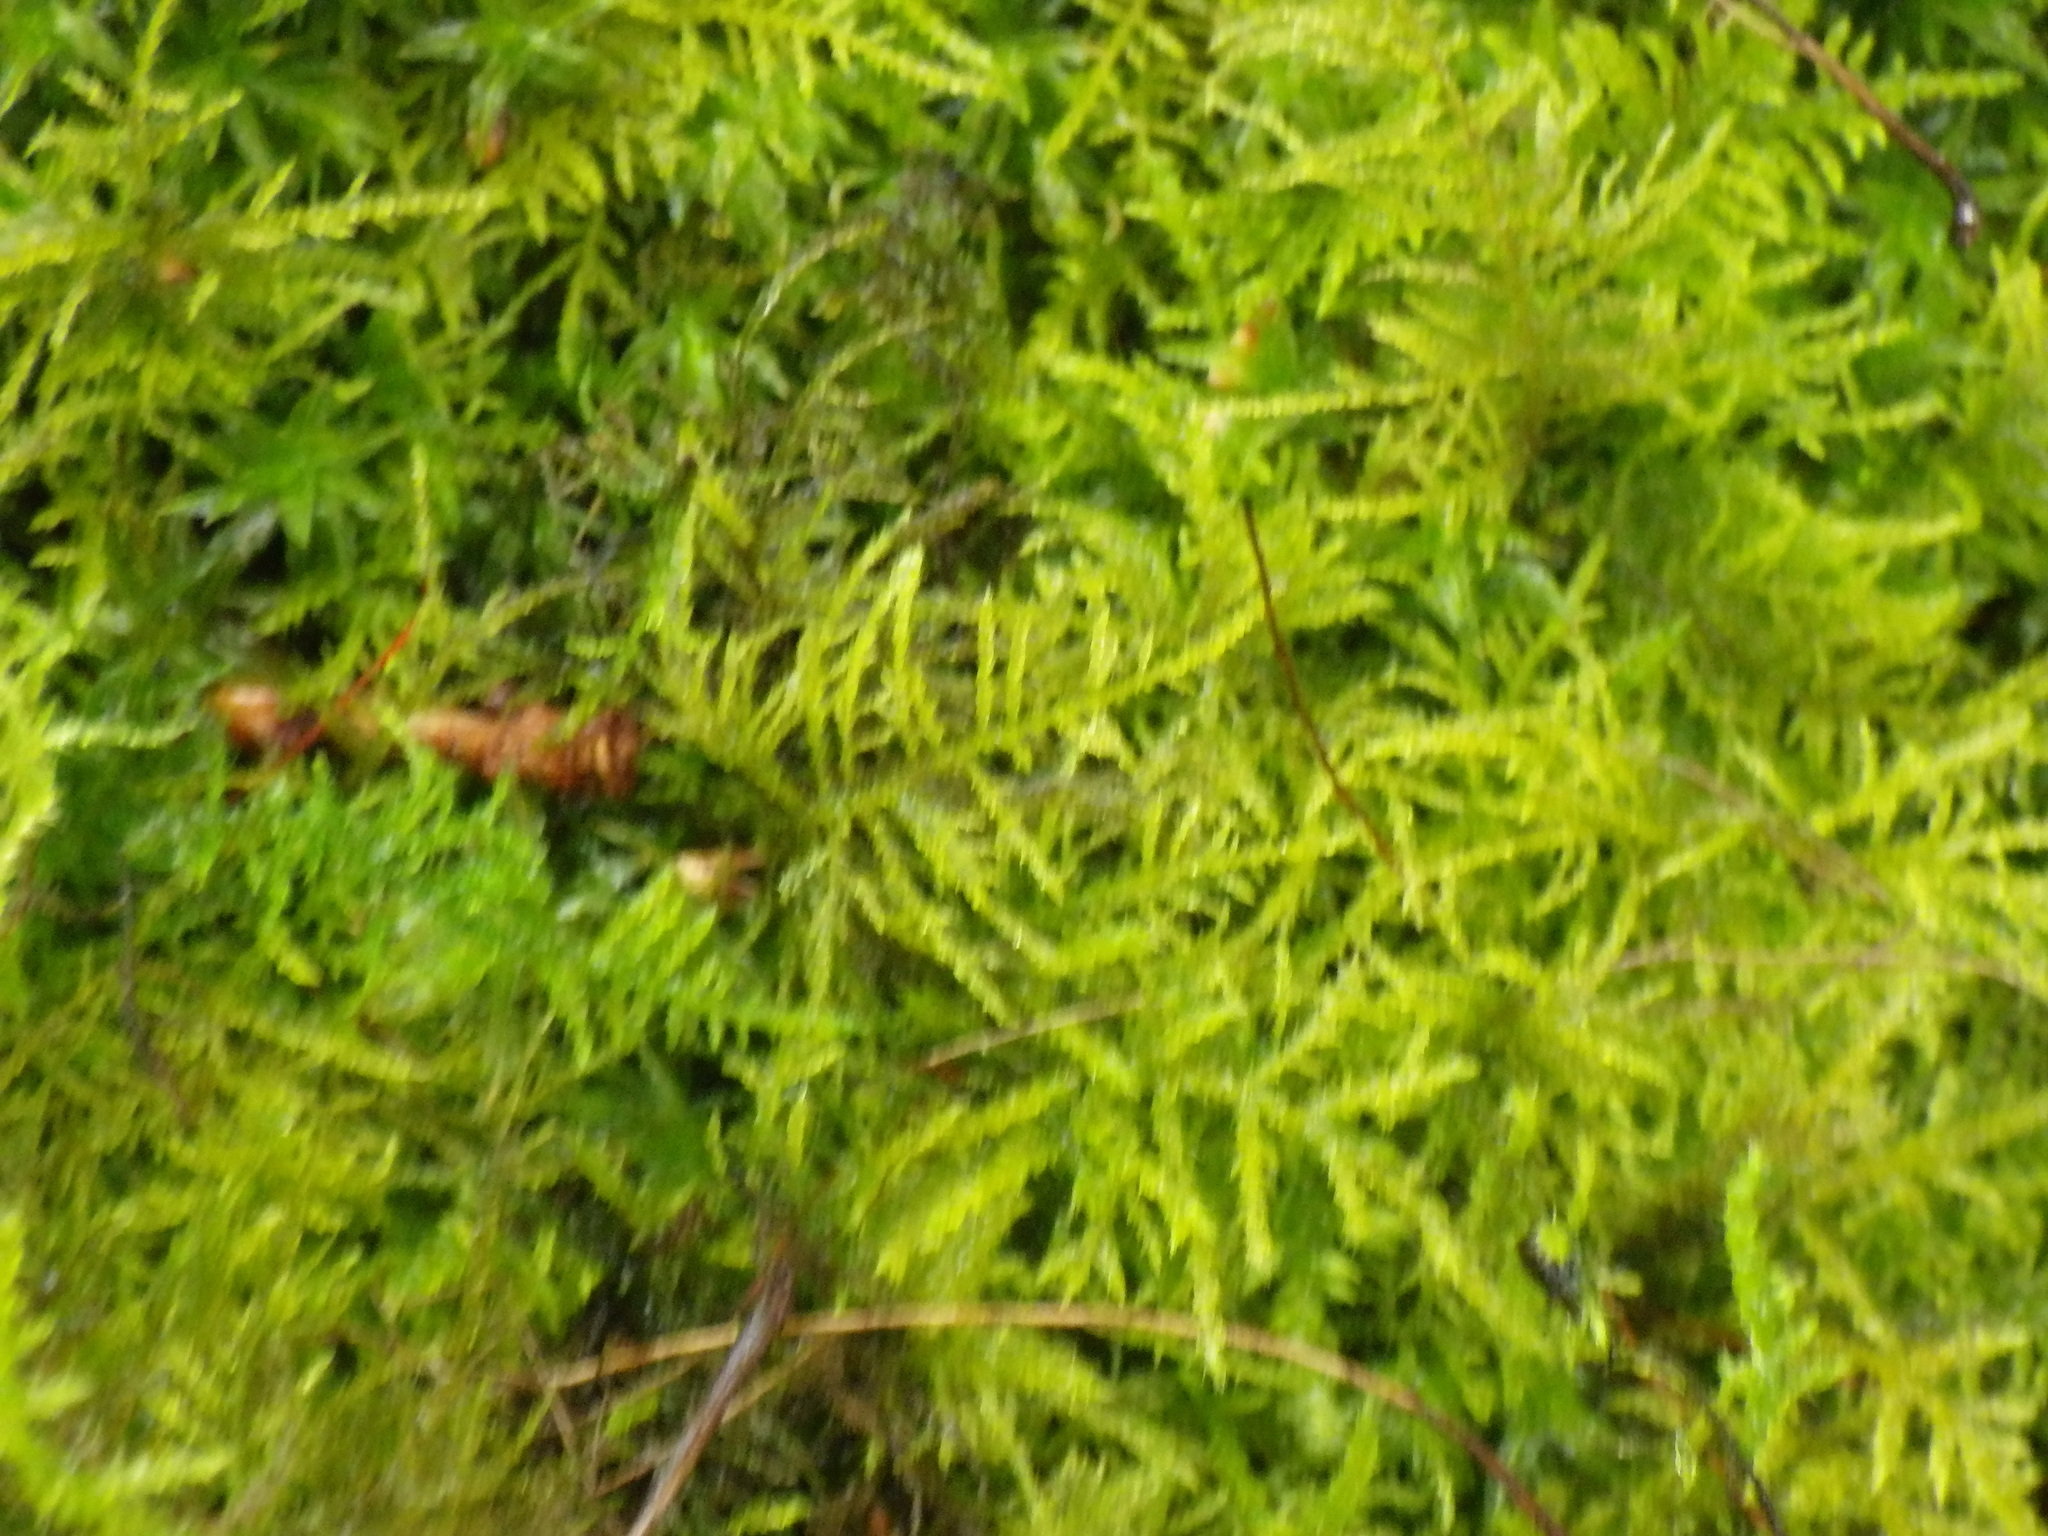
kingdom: Plantae
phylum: Bryophyta
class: Bryopsida
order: Hypnales
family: Brachytheciaceae
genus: Kindbergia
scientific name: Kindbergia praelonga
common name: Slender beaked moss
